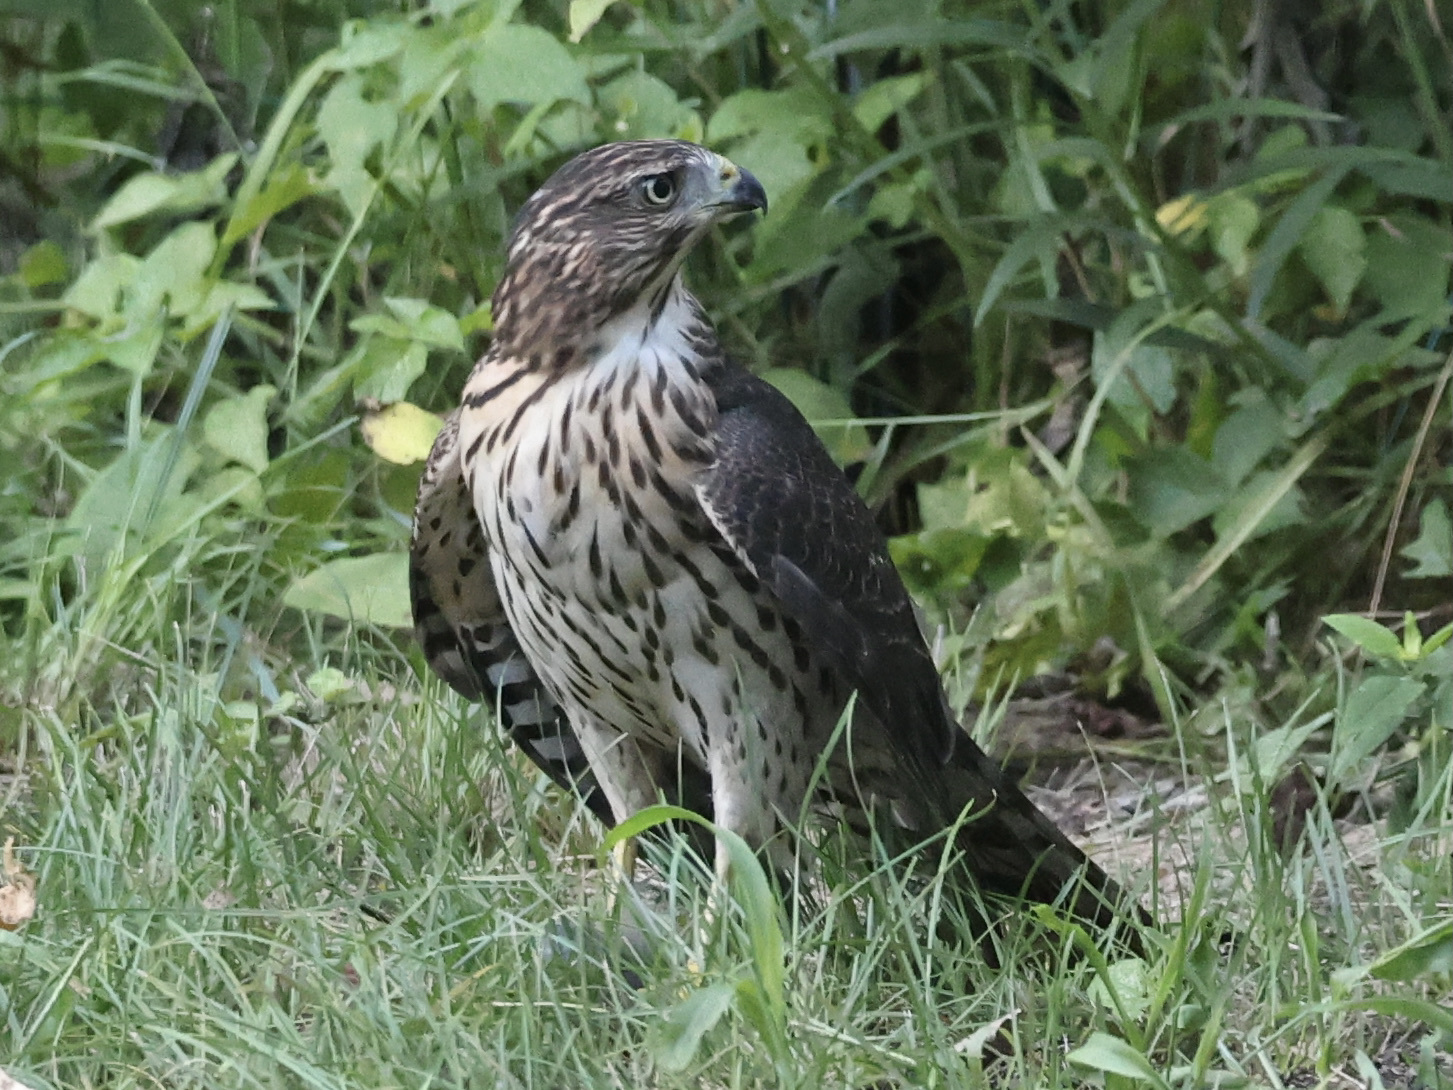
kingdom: Animalia
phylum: Chordata
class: Aves
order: Accipitriformes
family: Accipitridae
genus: Accipiter
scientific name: Accipiter cooperii
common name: Cooper's hawk
